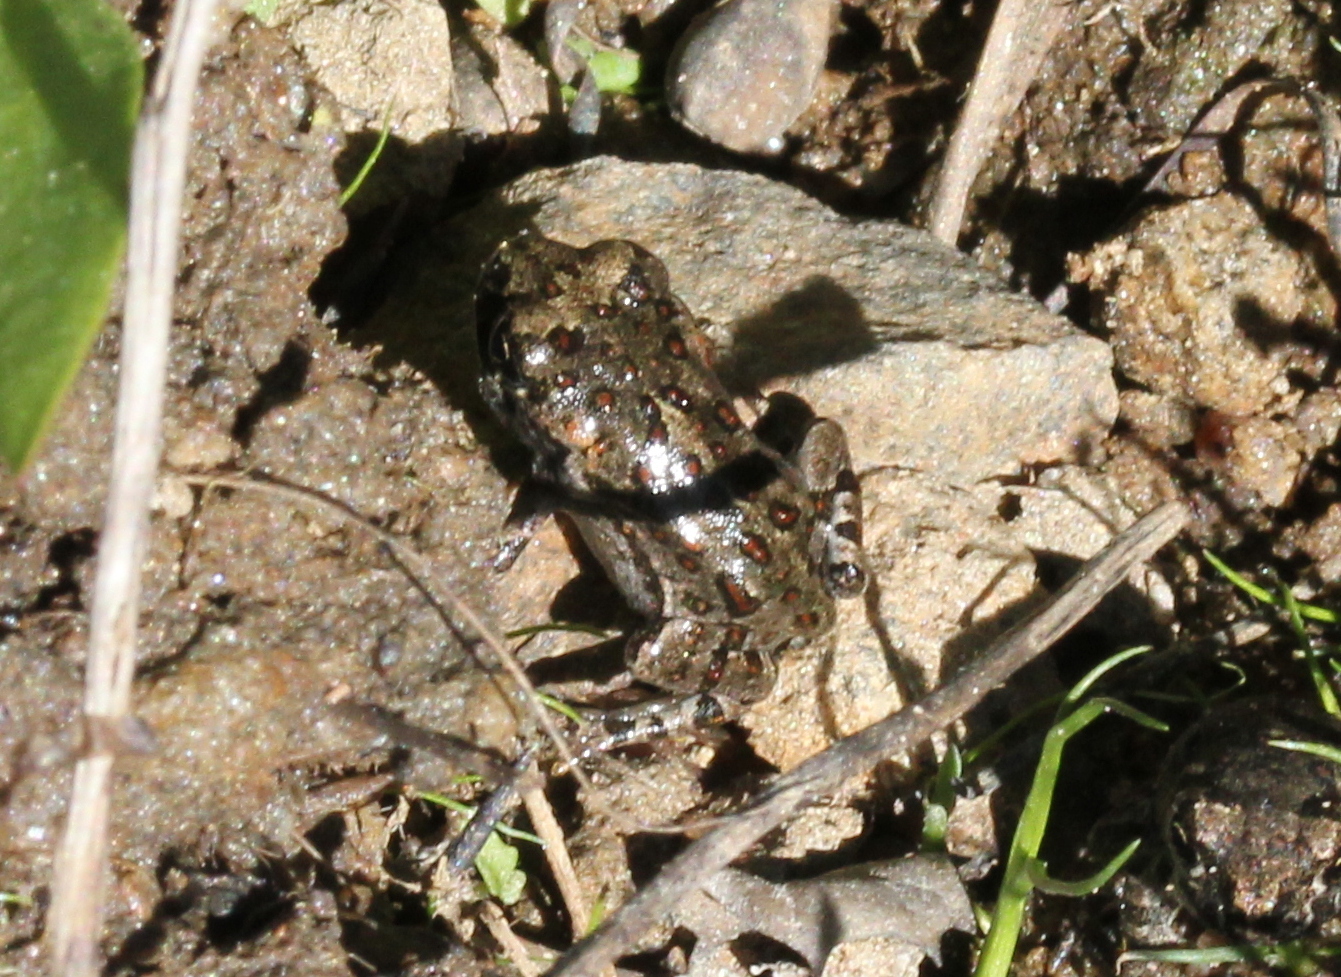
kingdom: Animalia
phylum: Chordata
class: Amphibia
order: Anura
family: Bufonidae
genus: Anaxyrus
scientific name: Anaxyrus boreas
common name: Western toad
